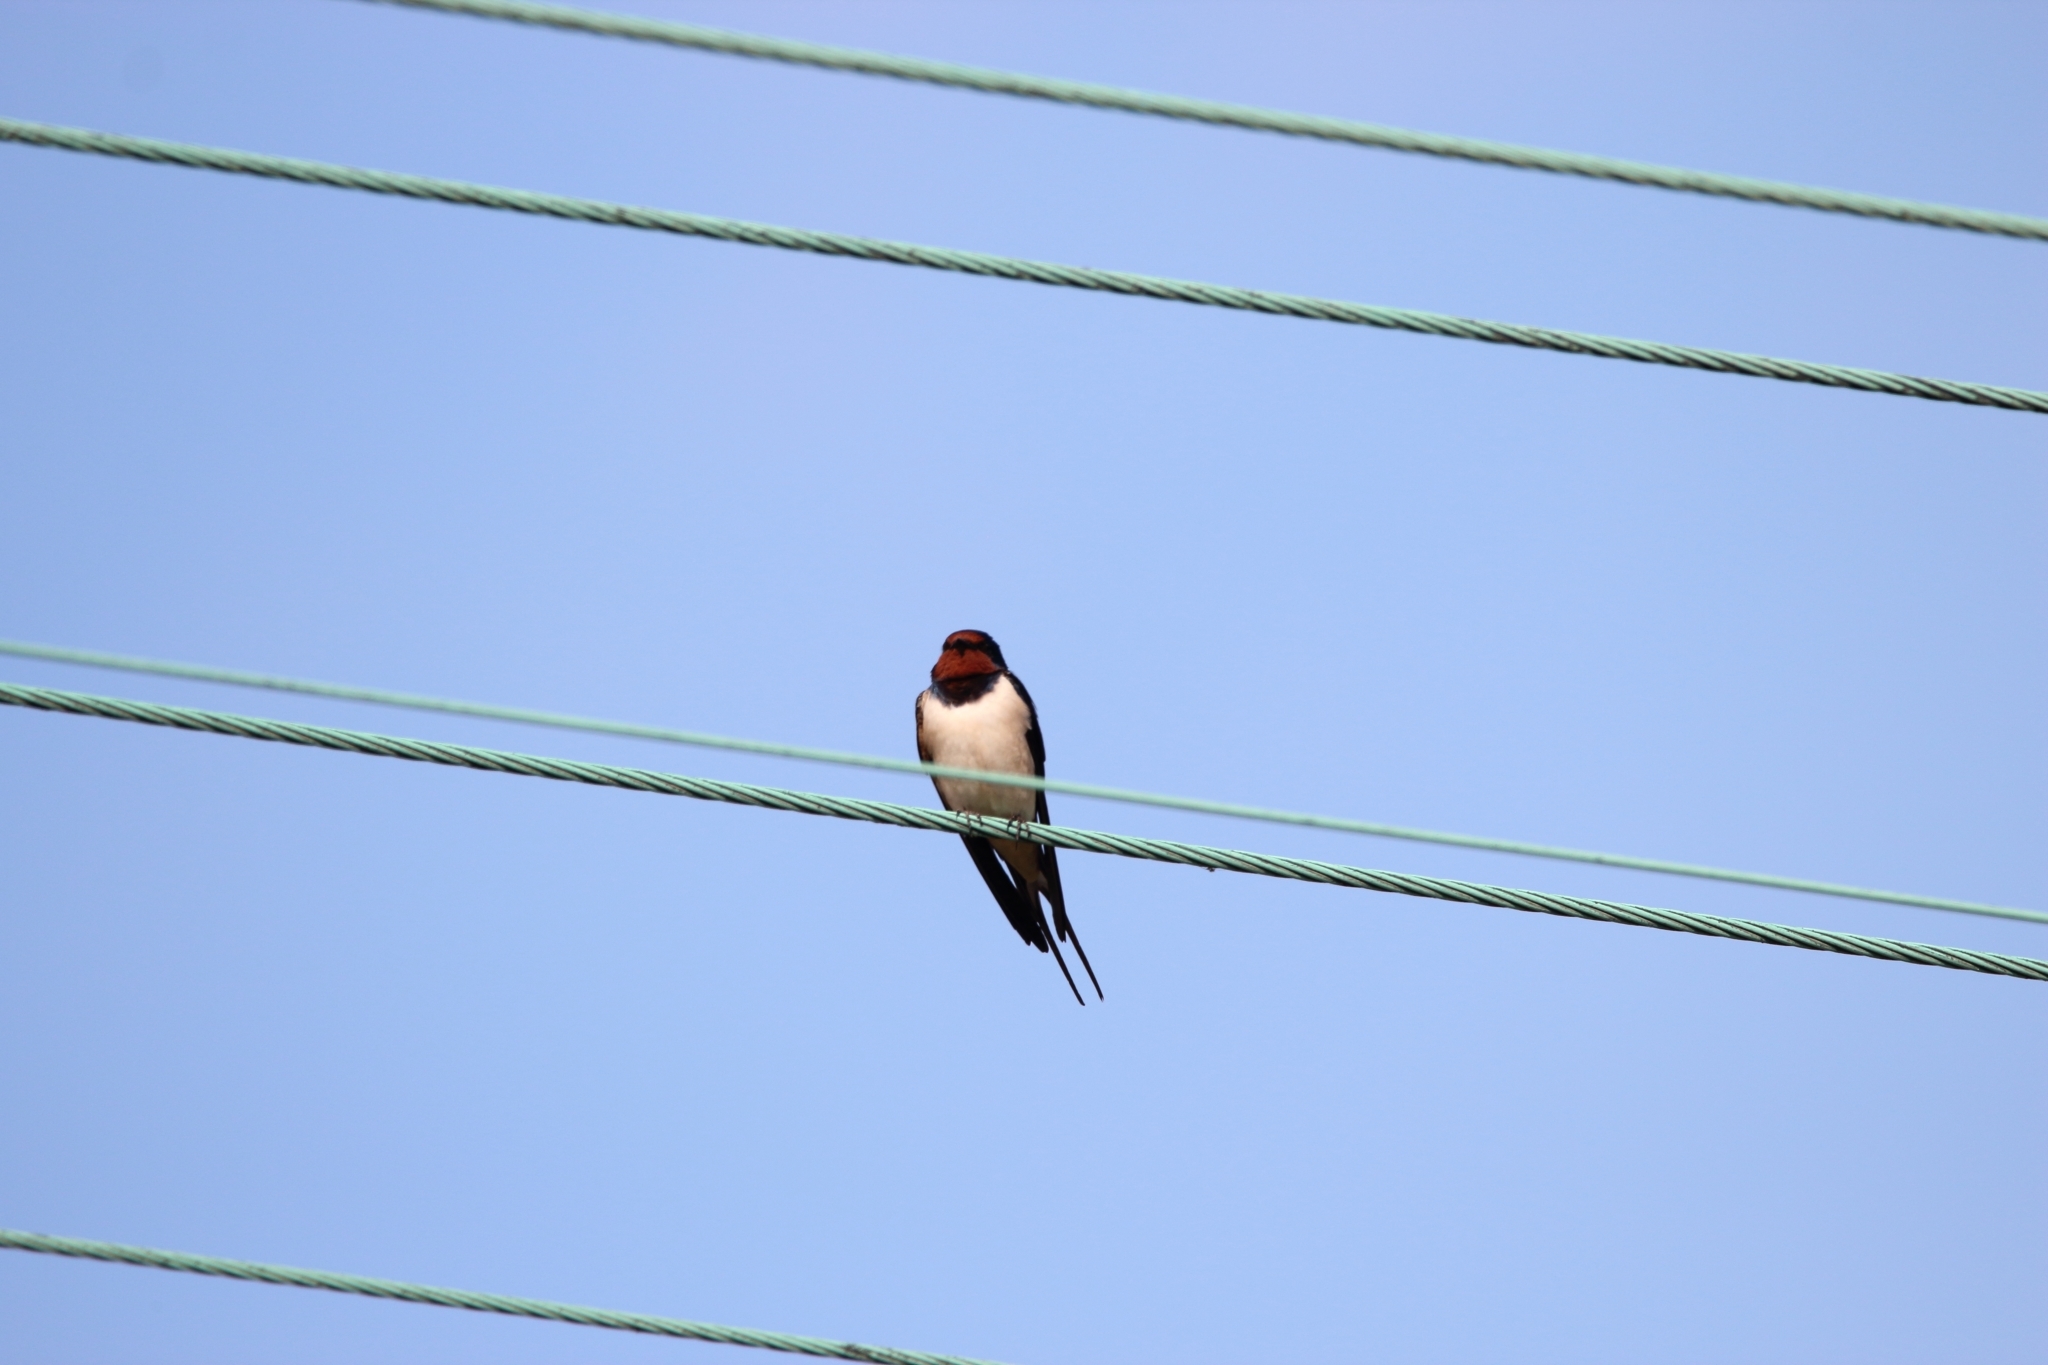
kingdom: Animalia
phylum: Chordata
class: Aves
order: Passeriformes
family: Hirundinidae
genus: Hirundo
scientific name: Hirundo rustica
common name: Barn swallow
